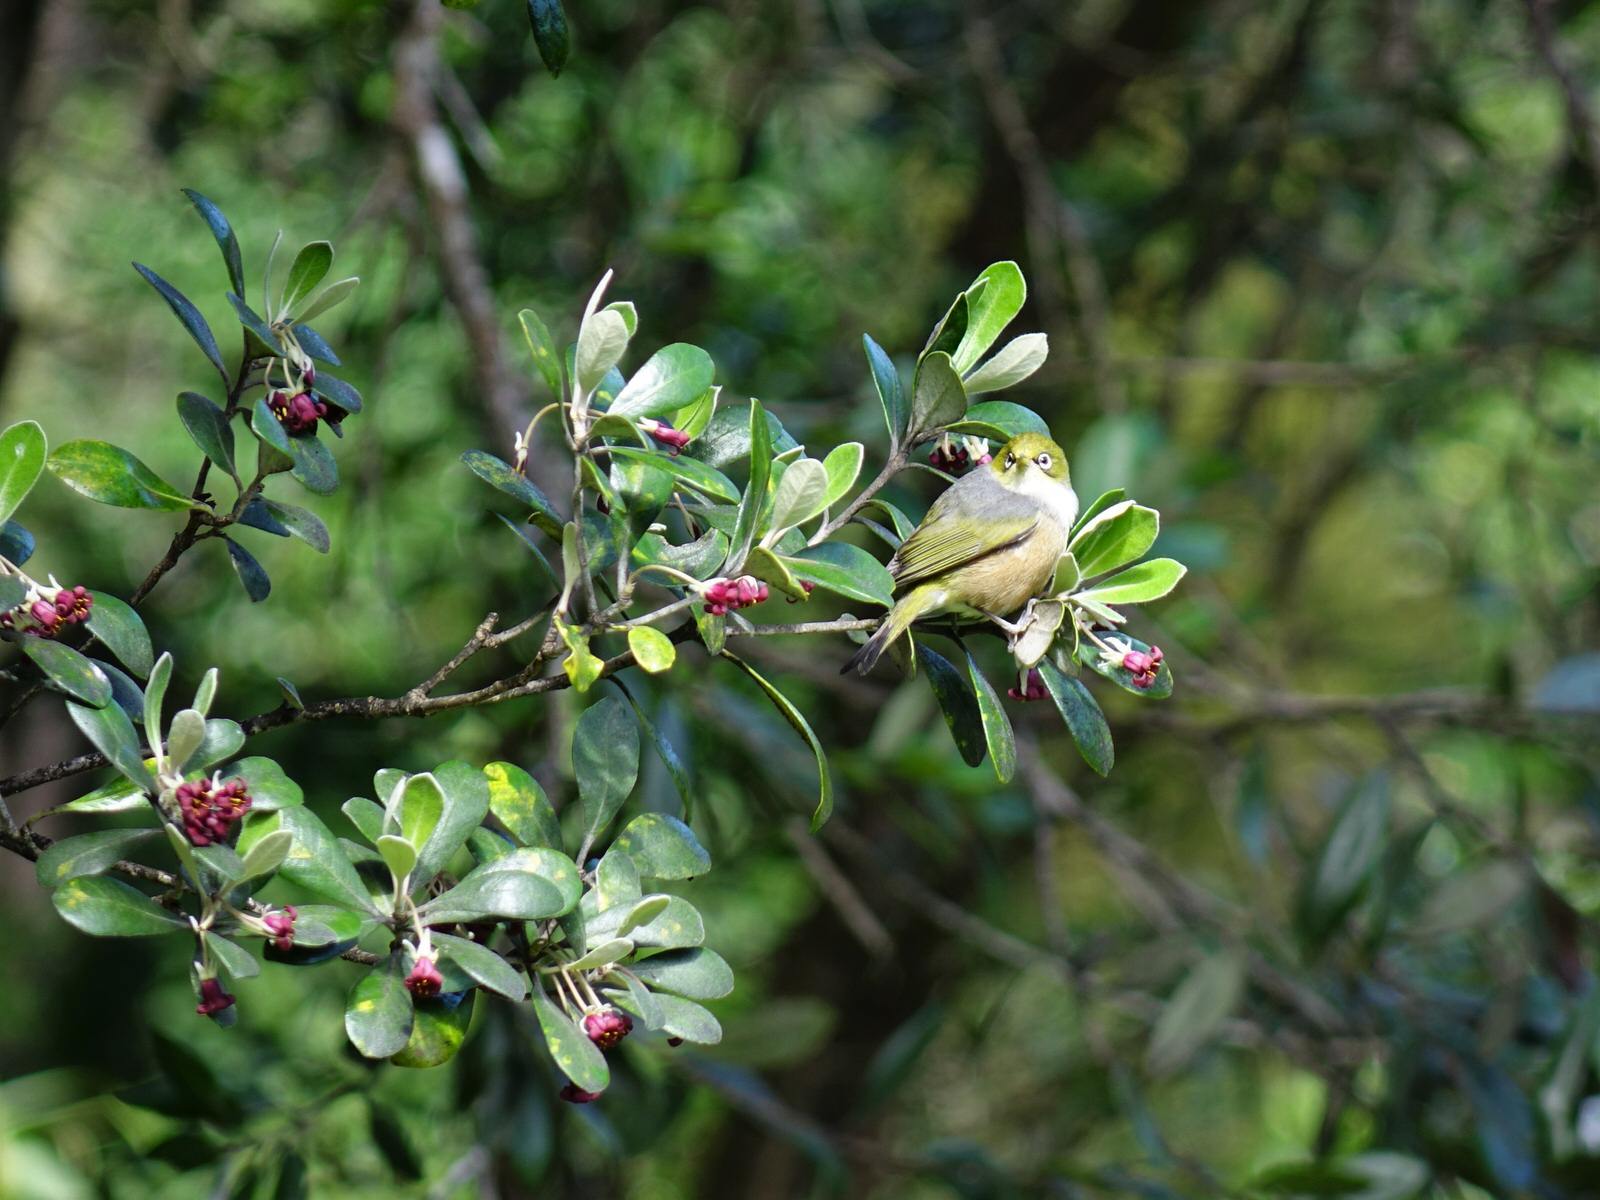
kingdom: Animalia
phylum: Chordata
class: Aves
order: Passeriformes
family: Zosteropidae
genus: Zosterops
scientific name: Zosterops lateralis
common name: Silvereye
